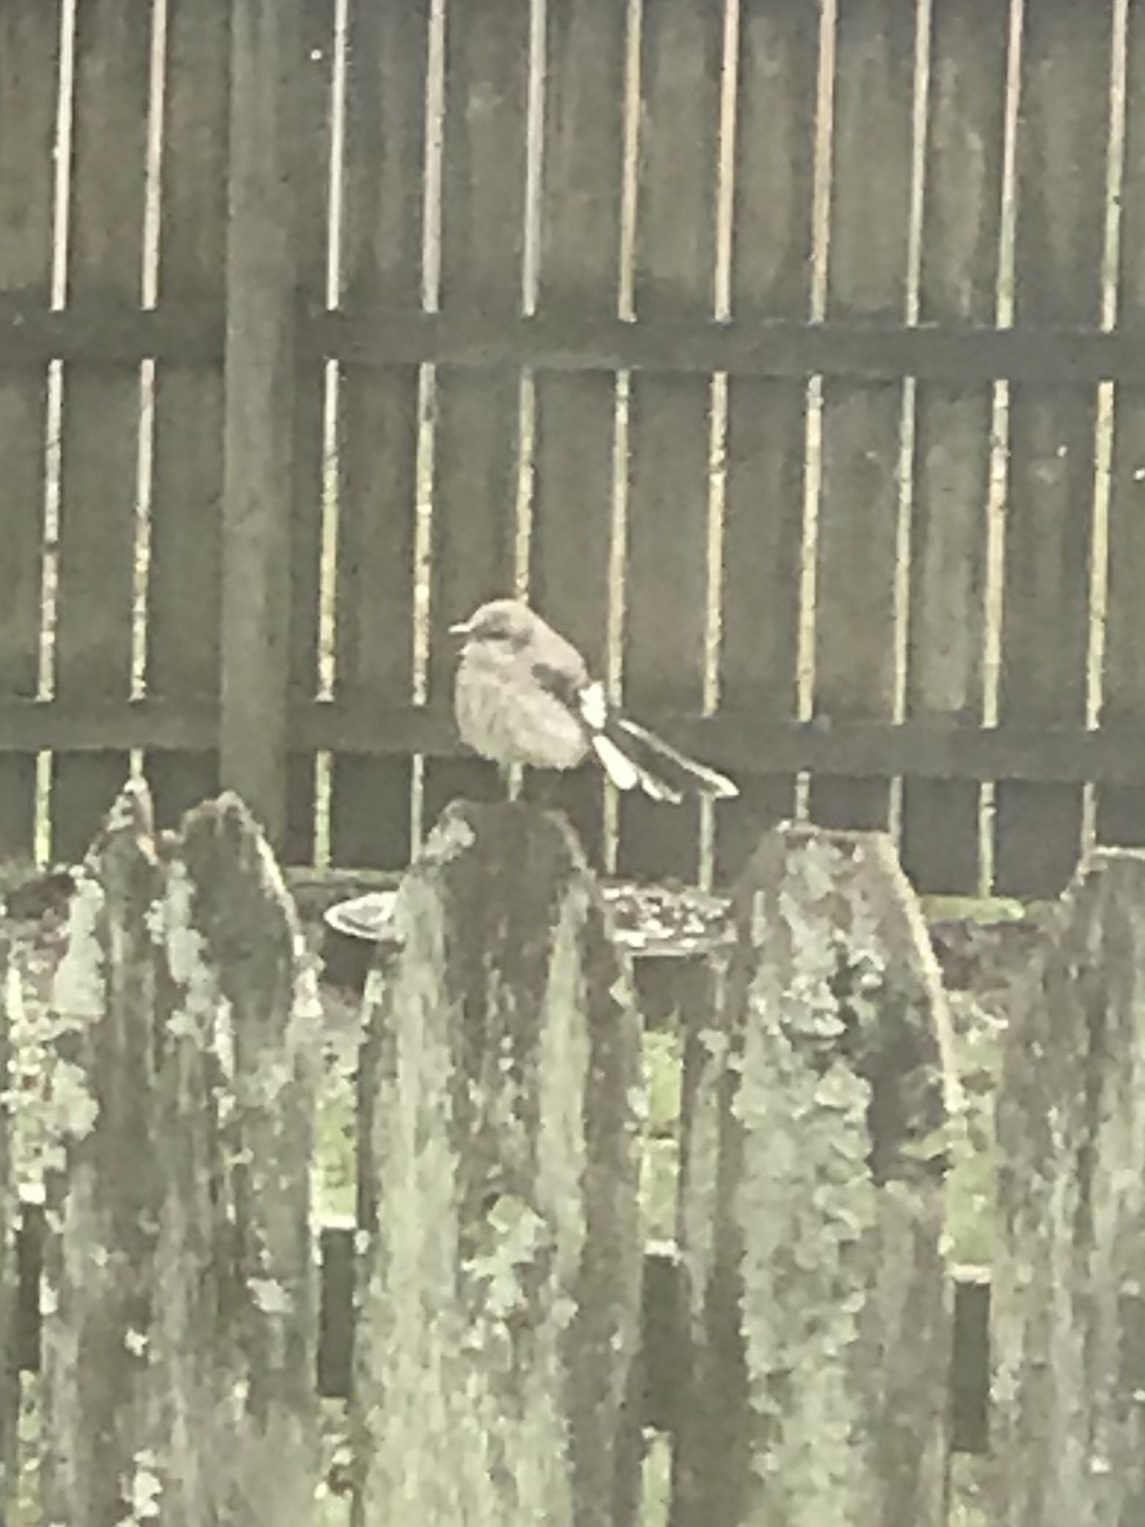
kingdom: Animalia
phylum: Chordata
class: Aves
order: Passeriformes
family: Mimidae
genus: Mimus
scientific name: Mimus polyglottos
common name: Northern mockingbird
